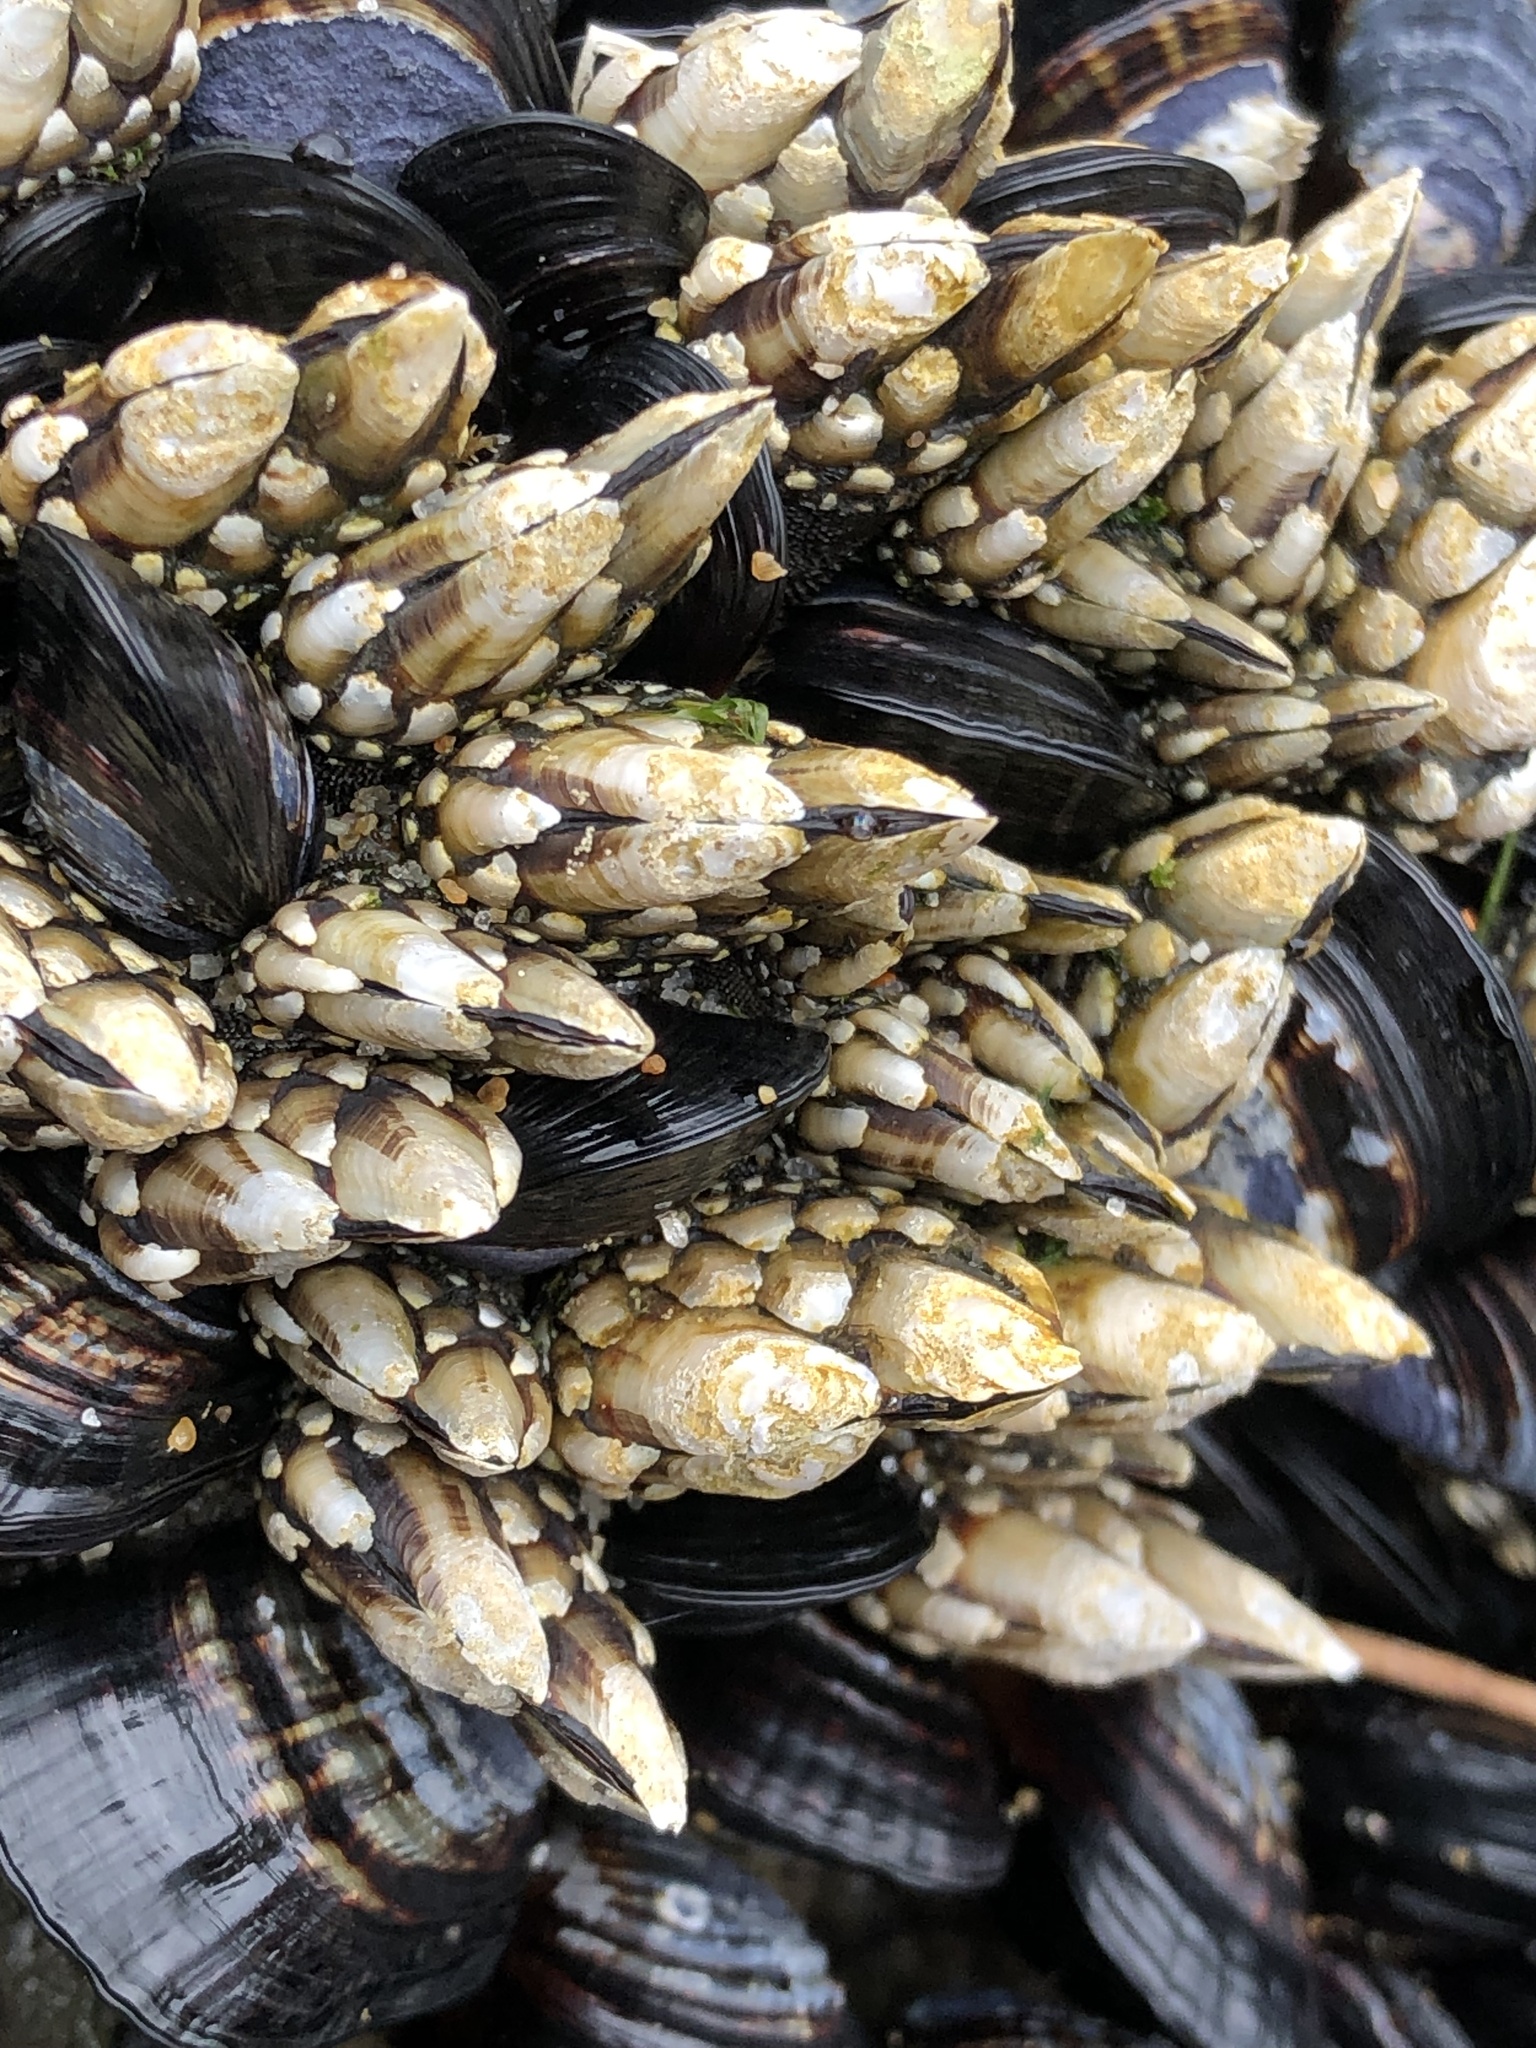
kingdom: Animalia
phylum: Arthropoda
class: Maxillopoda
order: Pedunculata
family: Pollicipedidae
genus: Pollicipes
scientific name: Pollicipes polymerus
